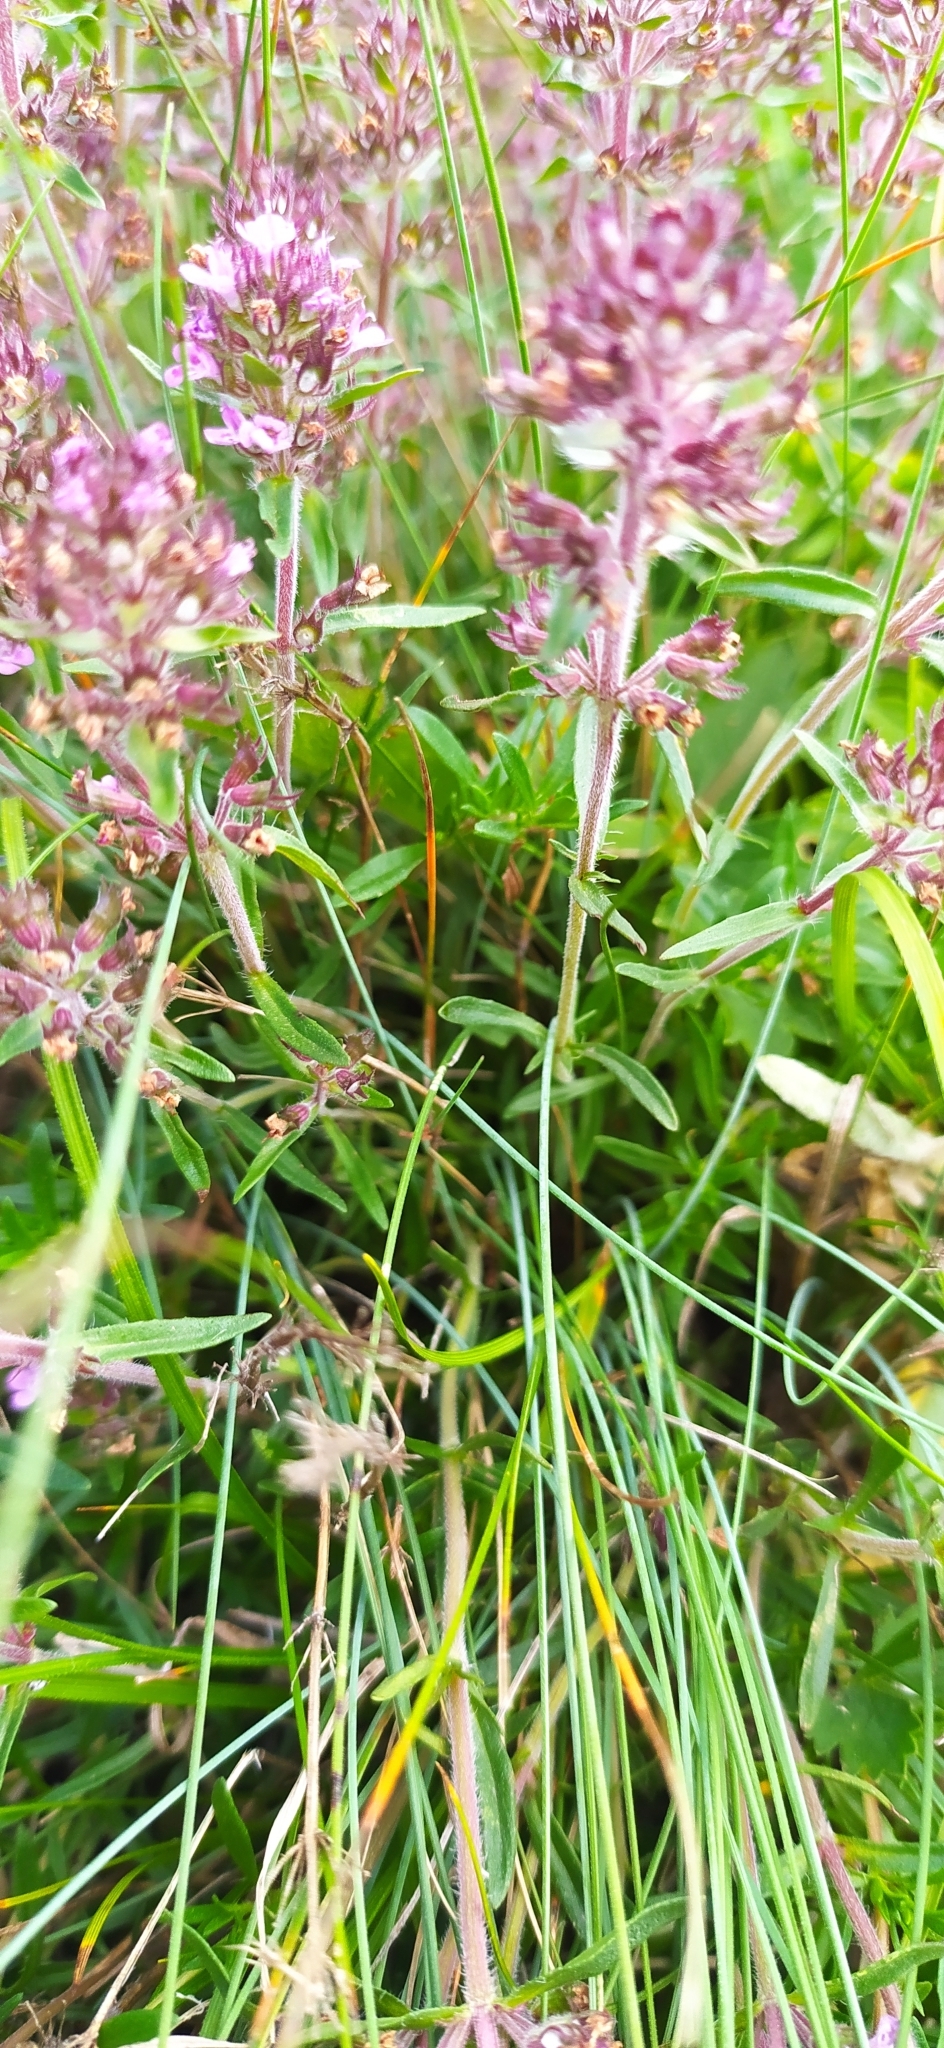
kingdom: Plantae
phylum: Tracheophyta
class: Magnoliopsida
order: Lamiales
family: Lamiaceae
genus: Thymus
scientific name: Thymus dzevanovskyi
